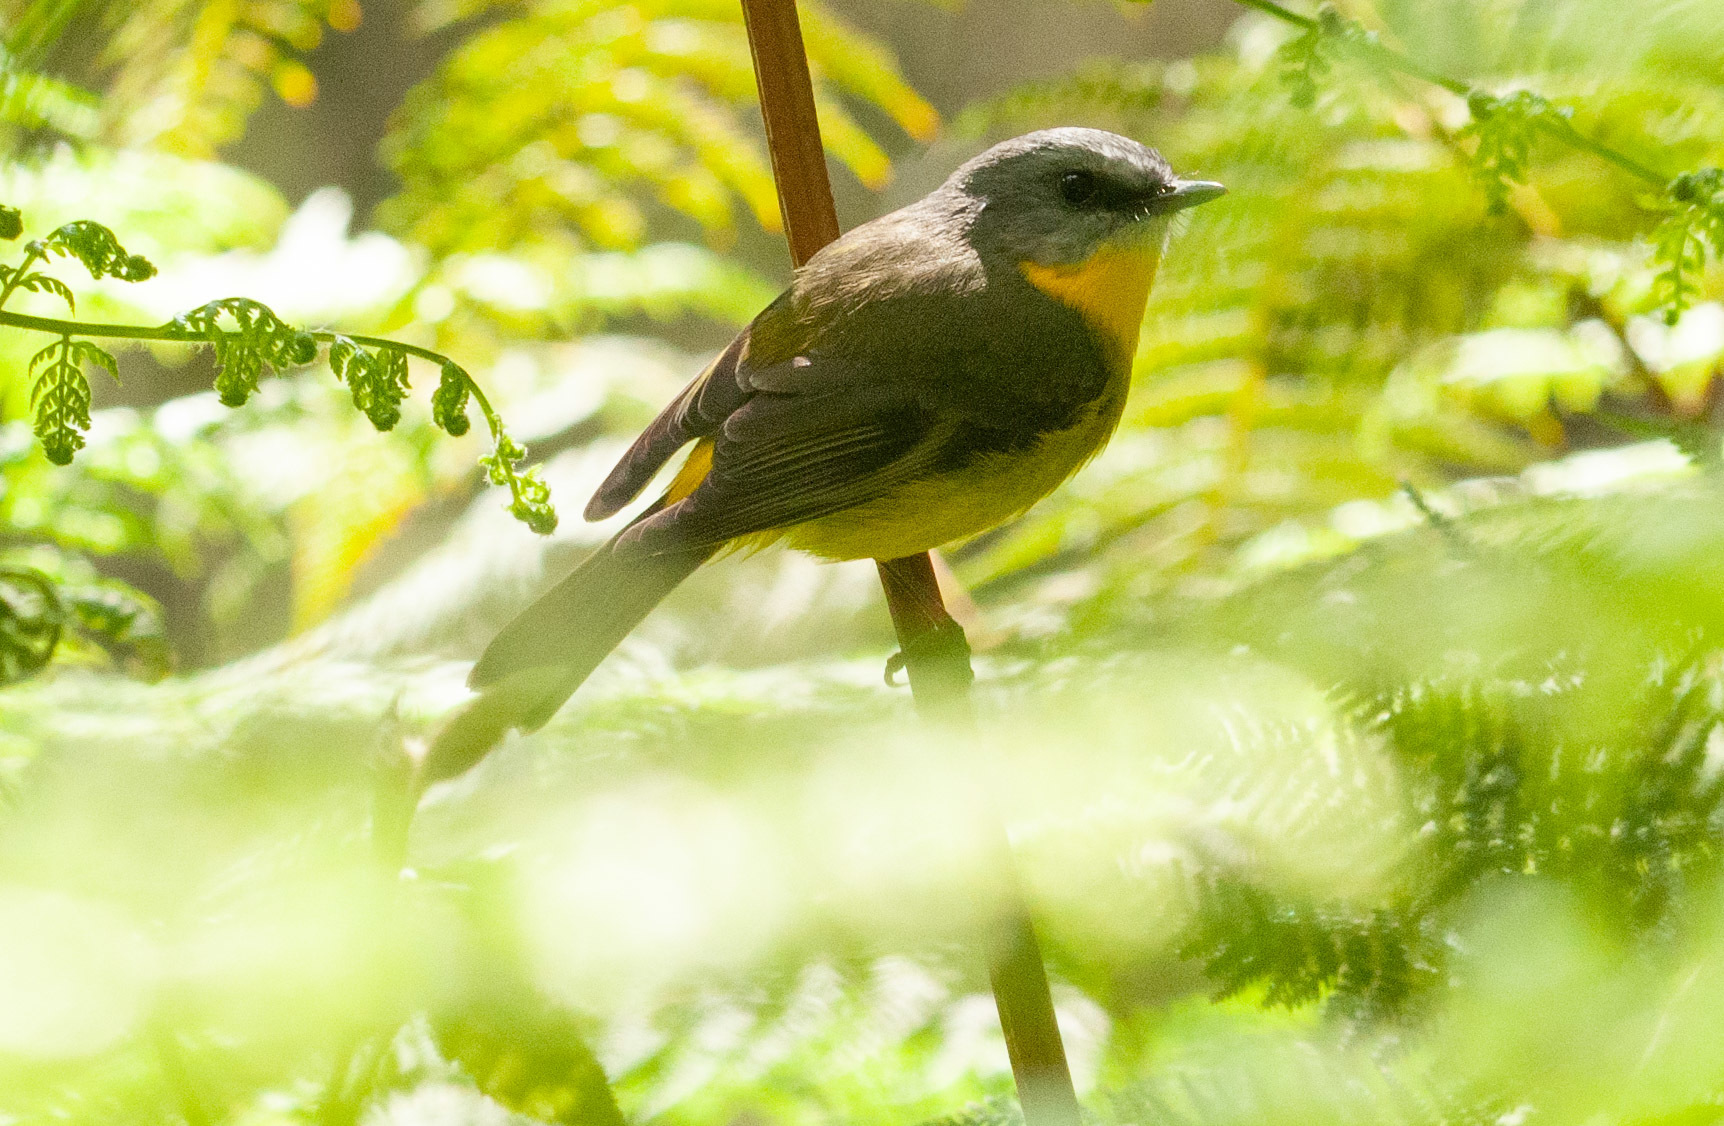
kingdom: Animalia
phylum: Chordata
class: Aves
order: Passeriformes
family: Petroicidae
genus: Eopsaltria
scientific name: Eopsaltria australis
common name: Eastern yellow robin
